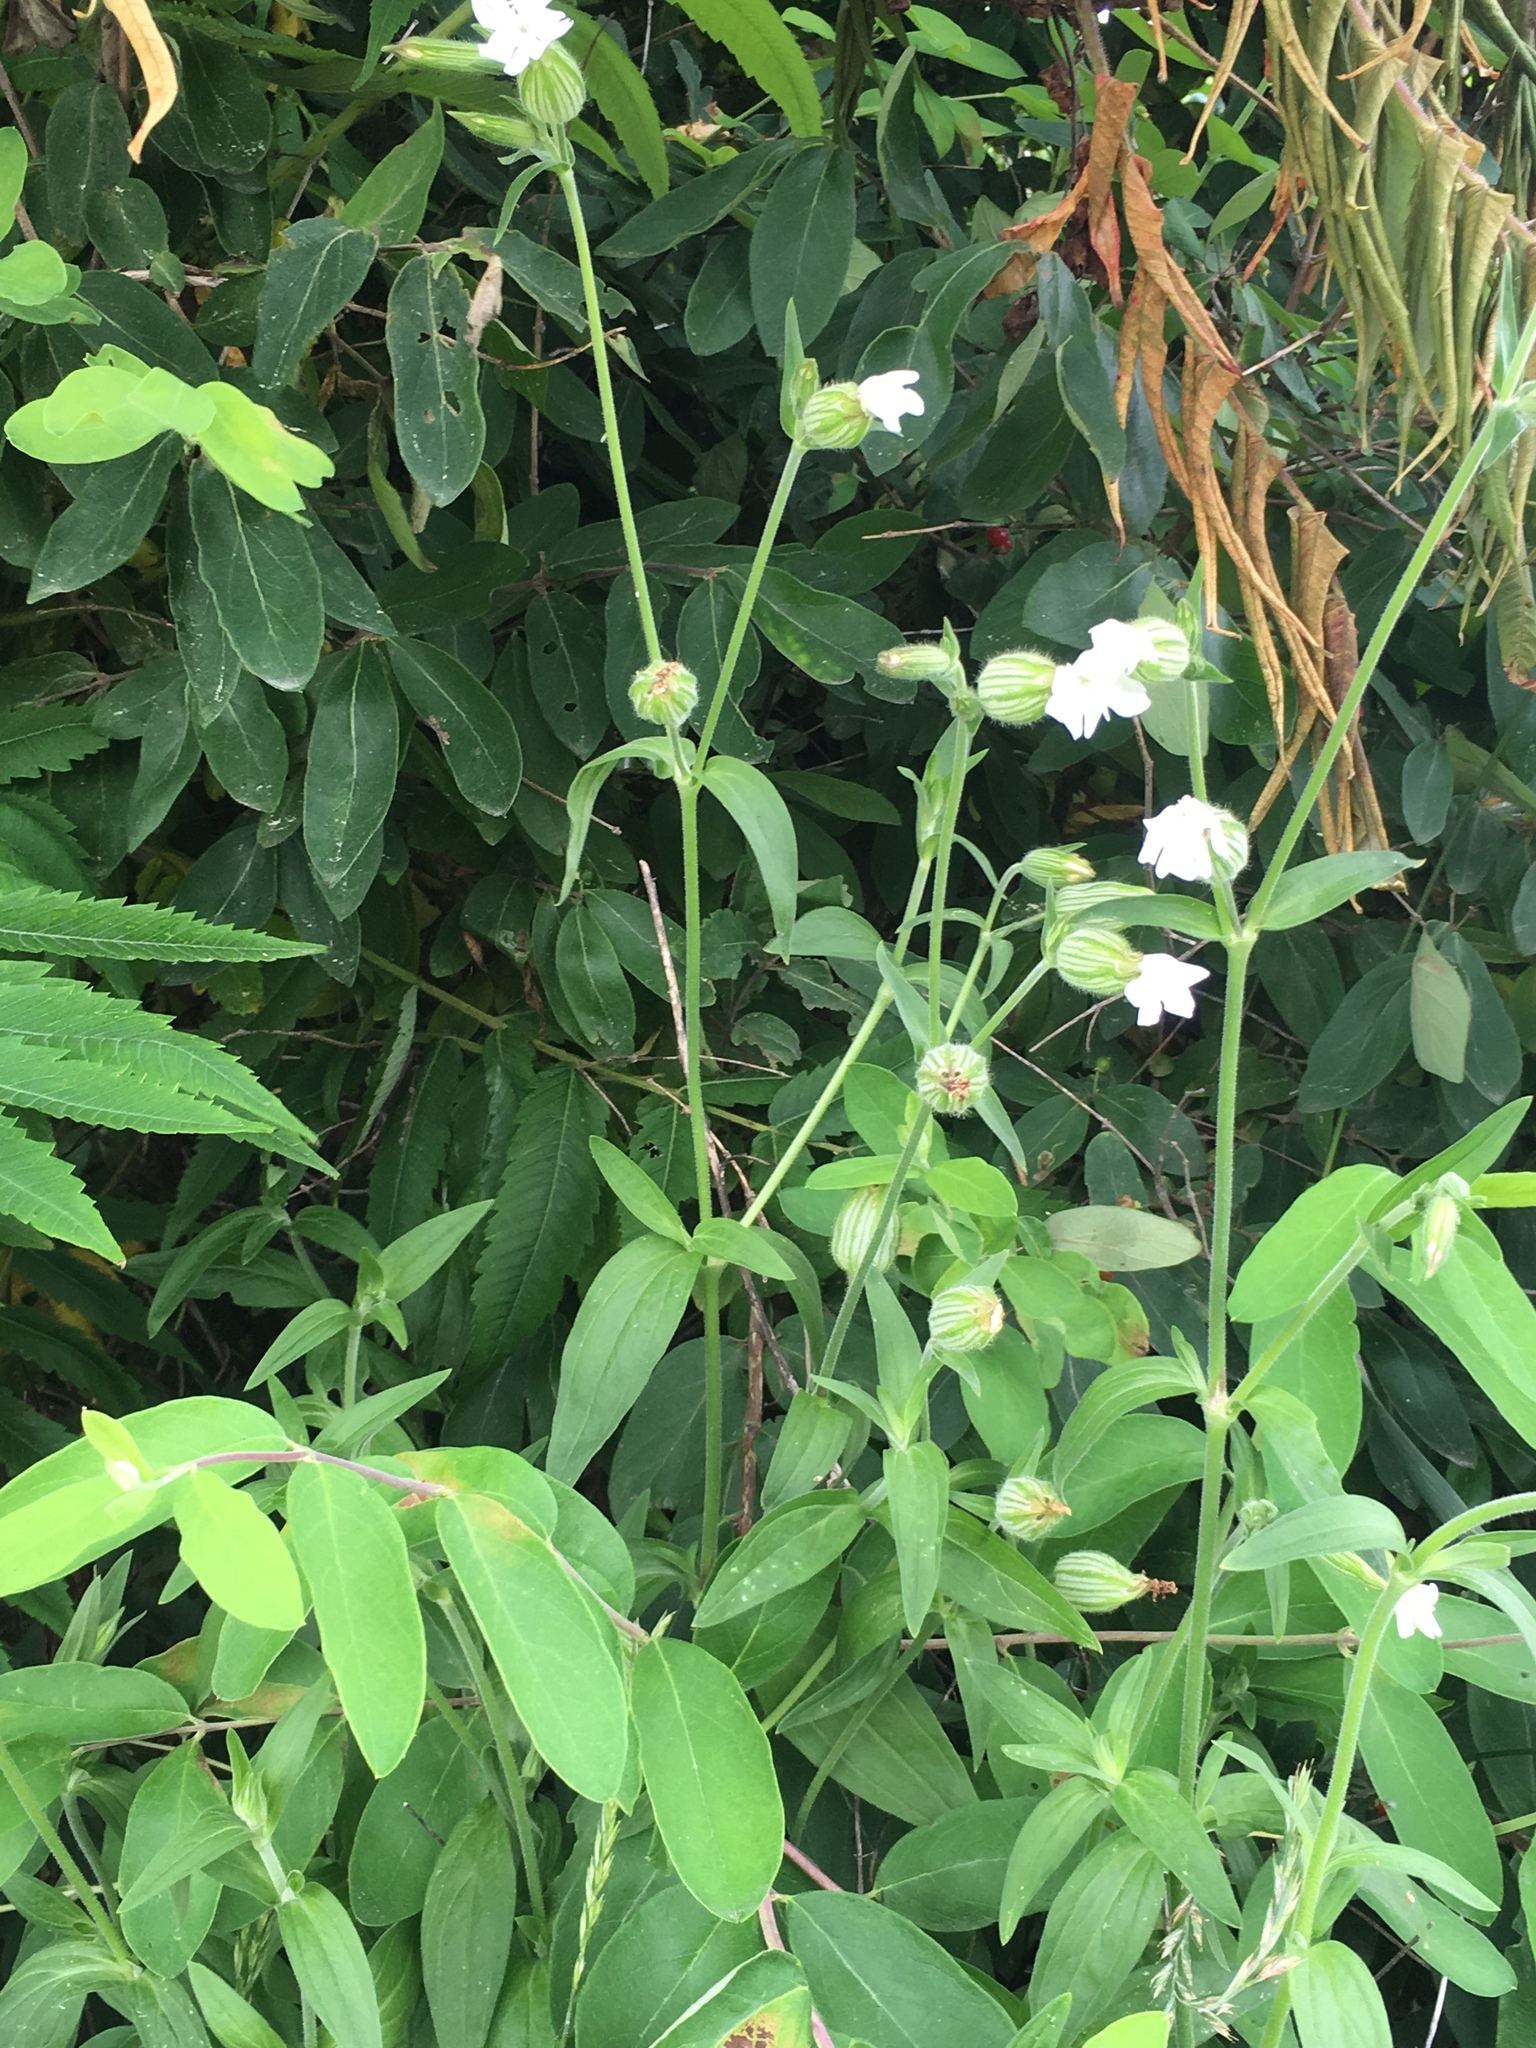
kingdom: Plantae
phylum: Tracheophyta
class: Magnoliopsida
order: Caryophyllales
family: Caryophyllaceae
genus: Silene
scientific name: Silene latifolia
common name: White campion
